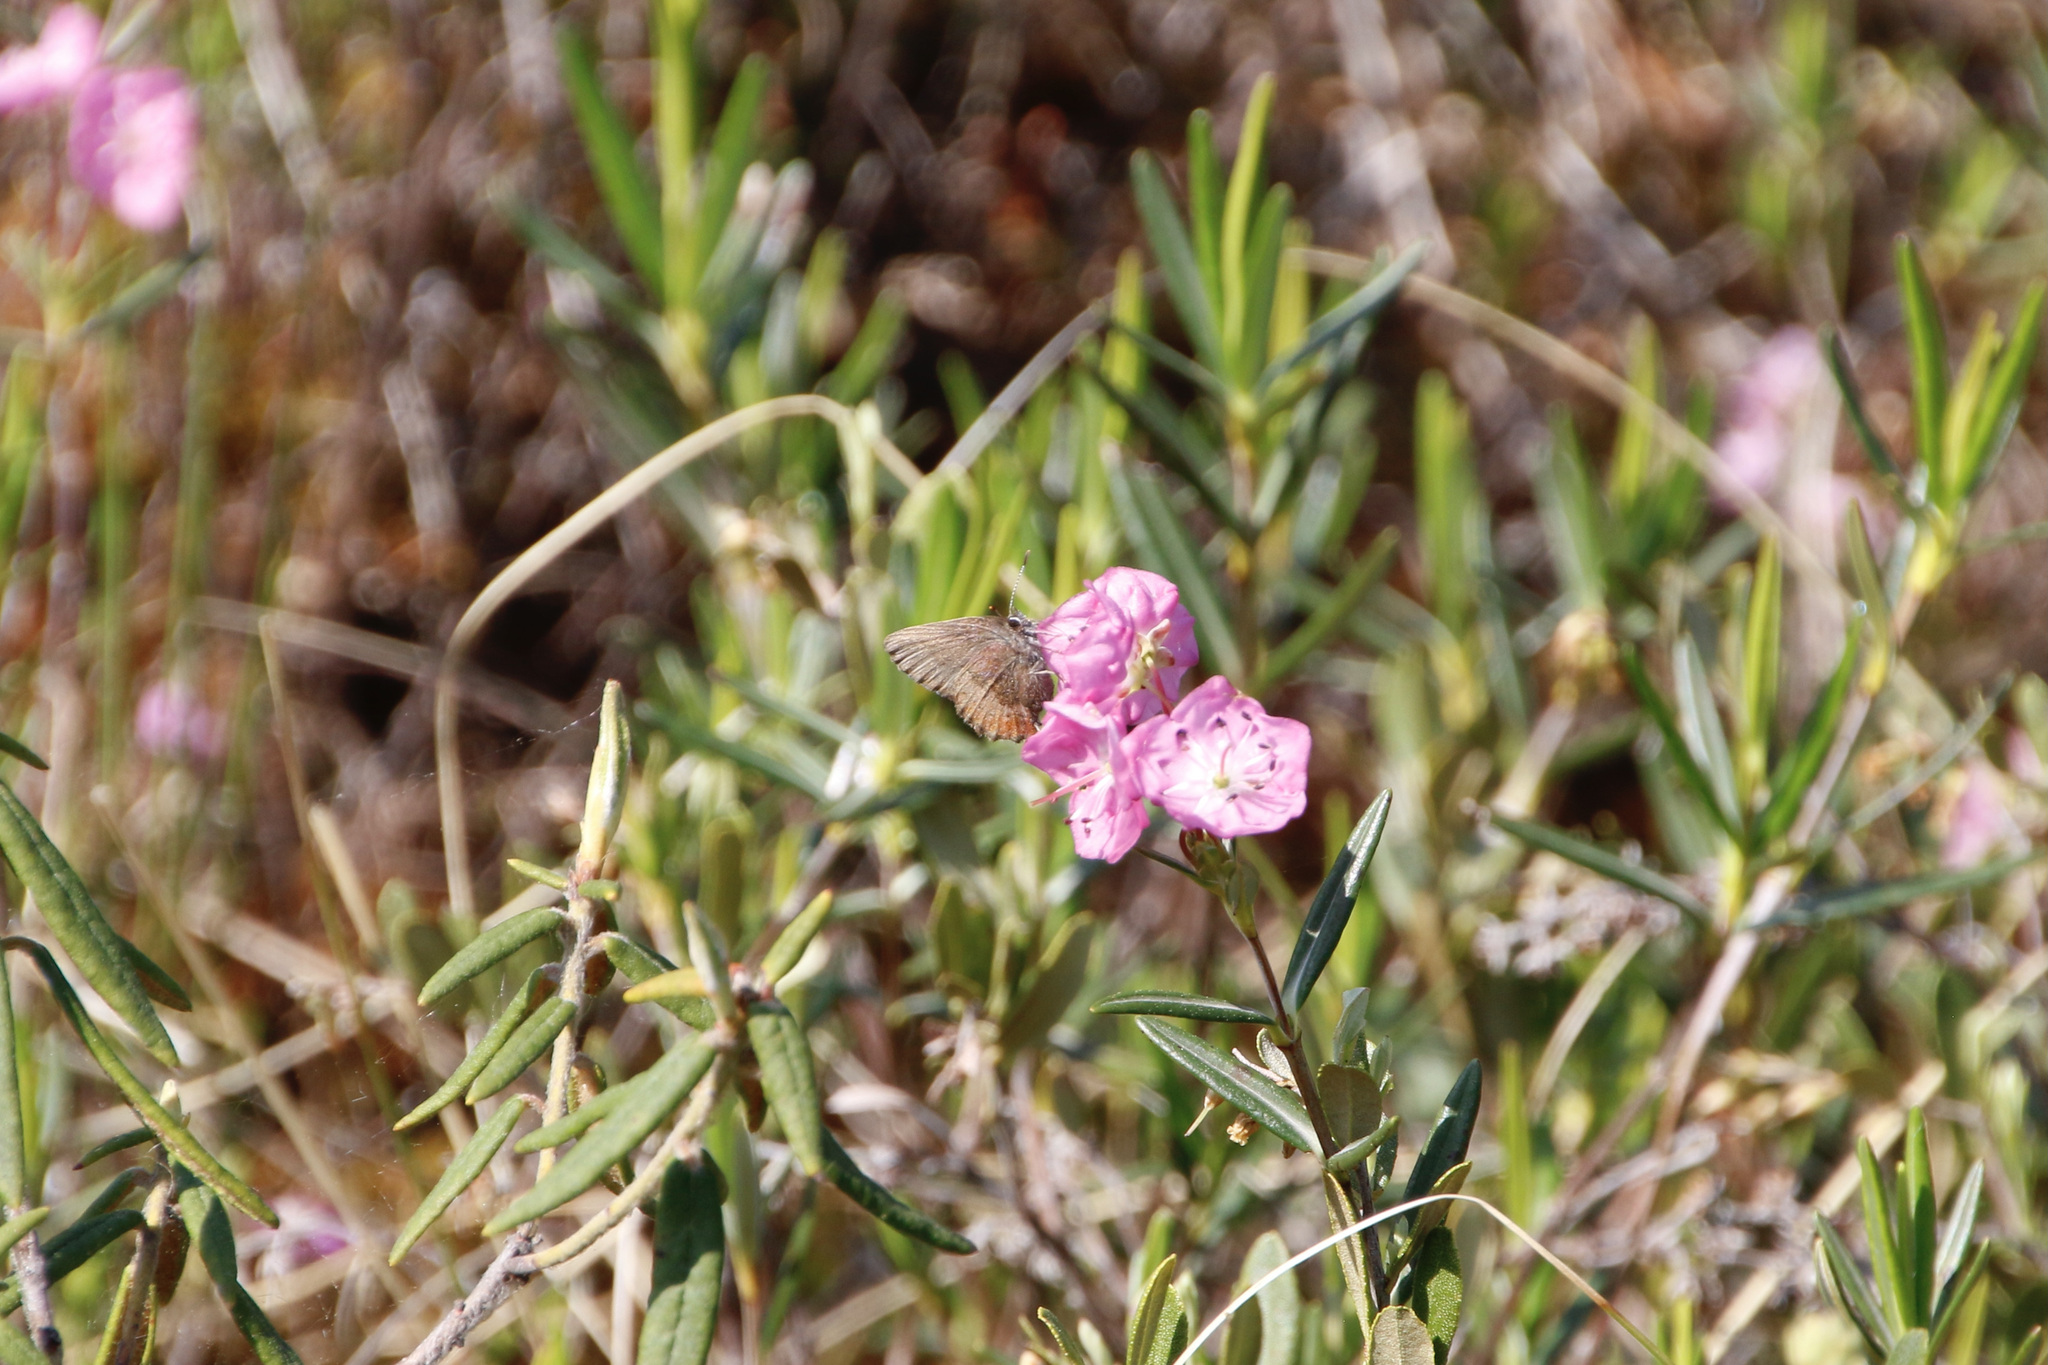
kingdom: Animalia
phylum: Arthropoda
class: Insecta
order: Lepidoptera
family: Lycaenidae
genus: Incisalia
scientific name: Incisalia irioides
